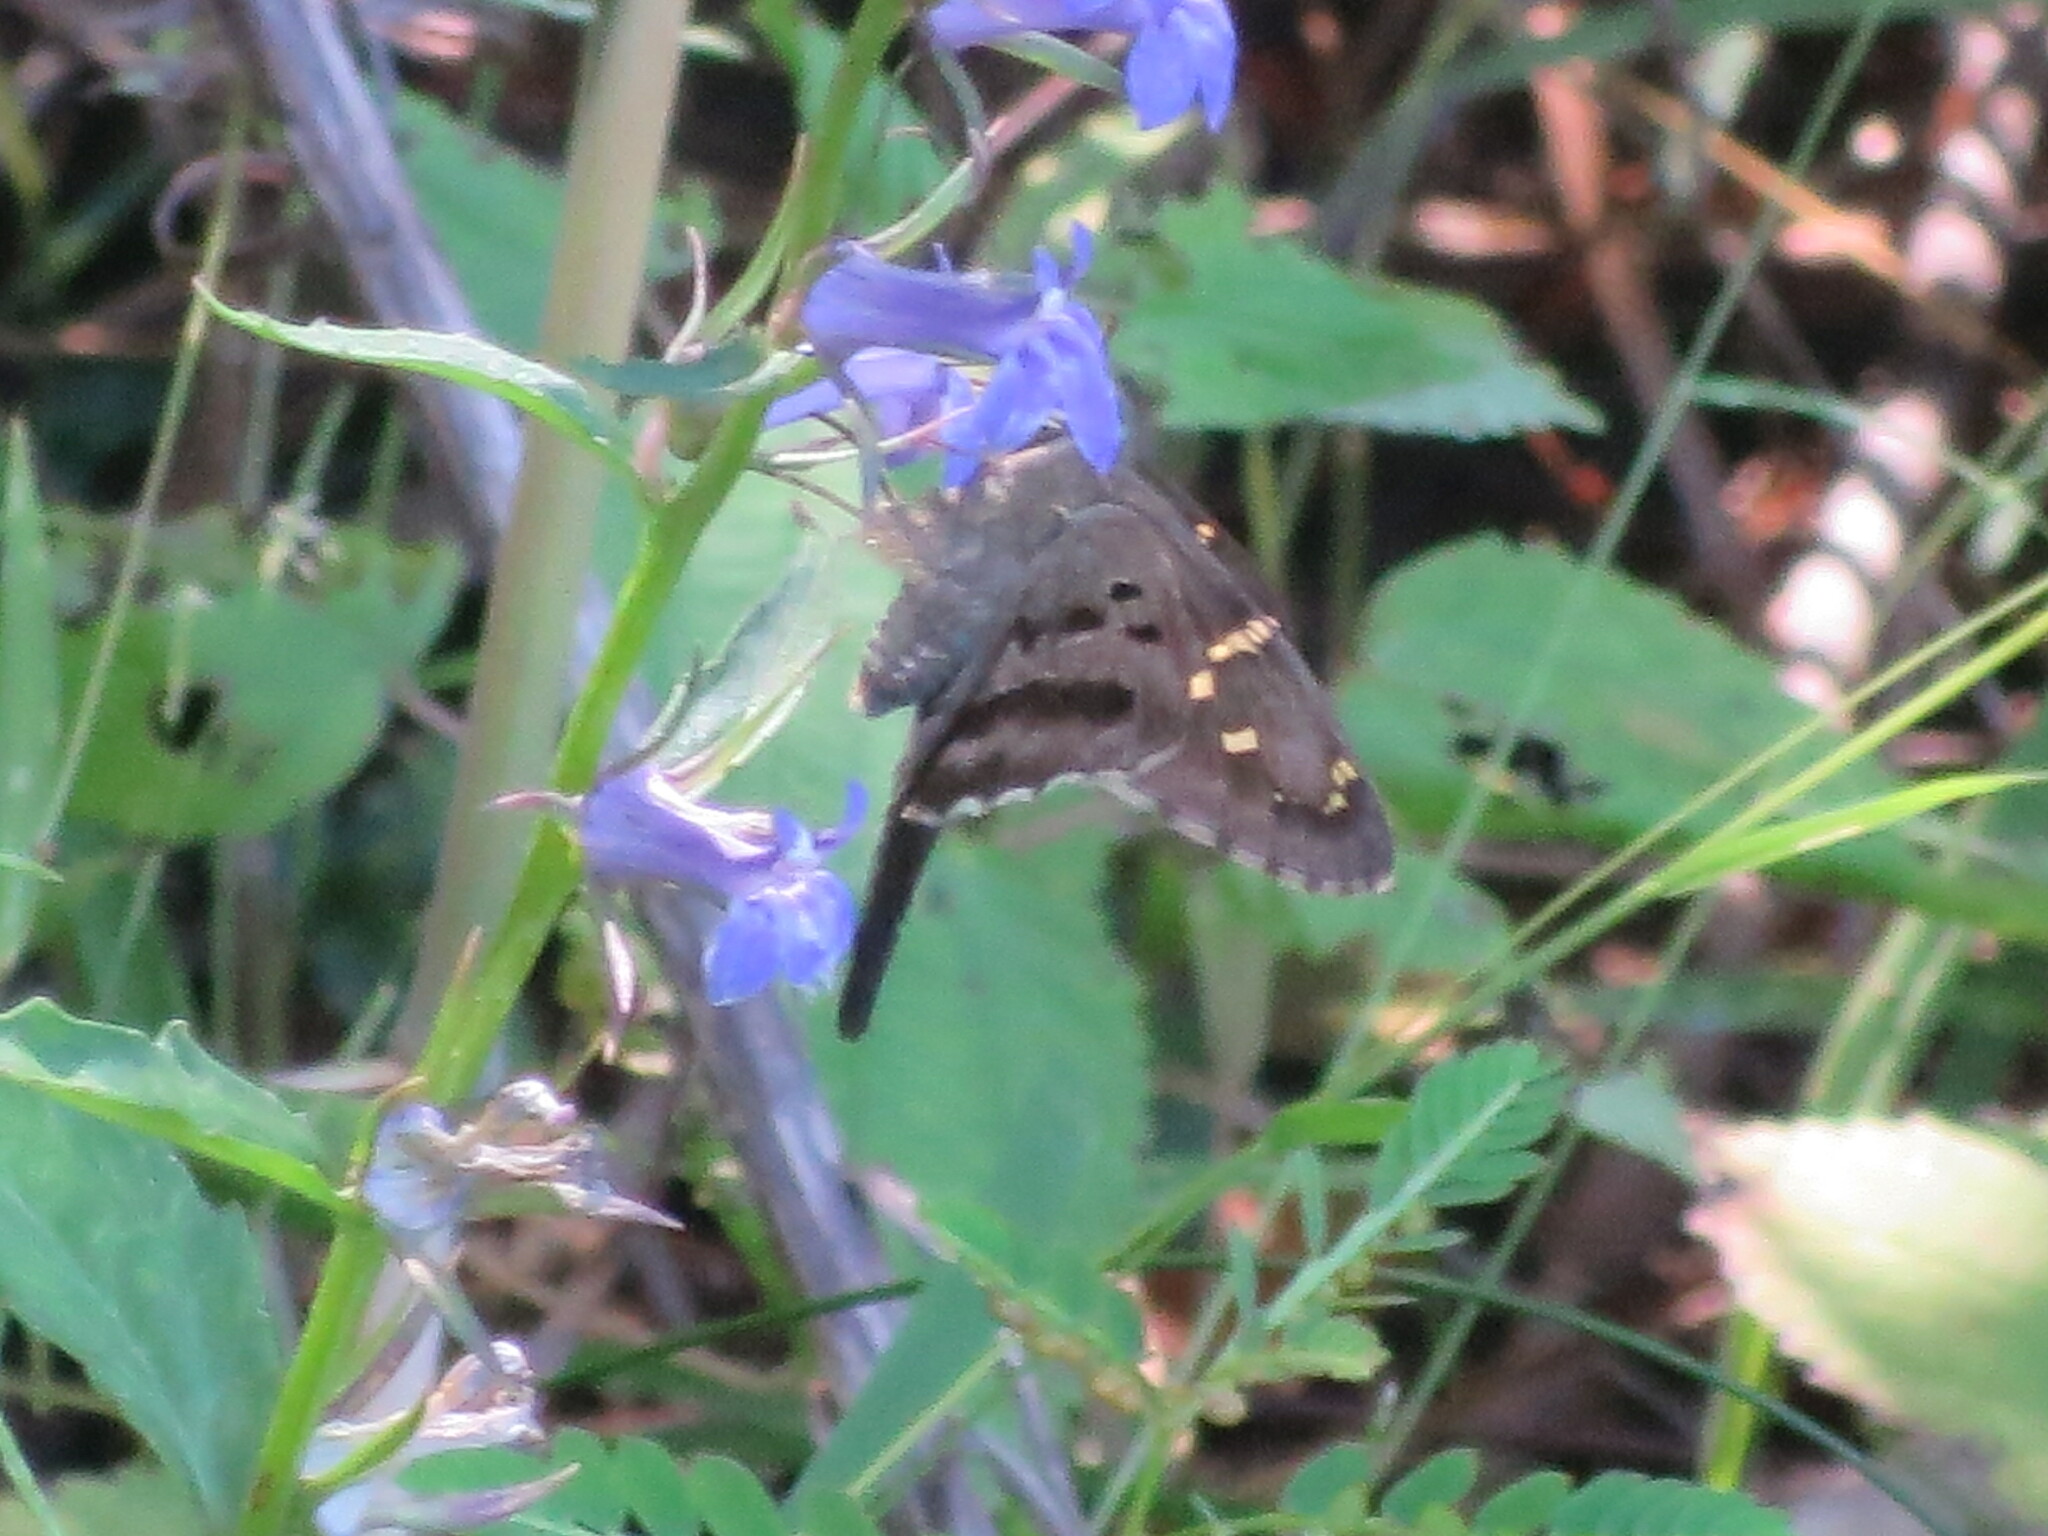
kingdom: Animalia
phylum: Arthropoda
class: Insecta
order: Lepidoptera
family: Hesperiidae
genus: Urbanus
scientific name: Urbanus proteus
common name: Long-tailed skipper
